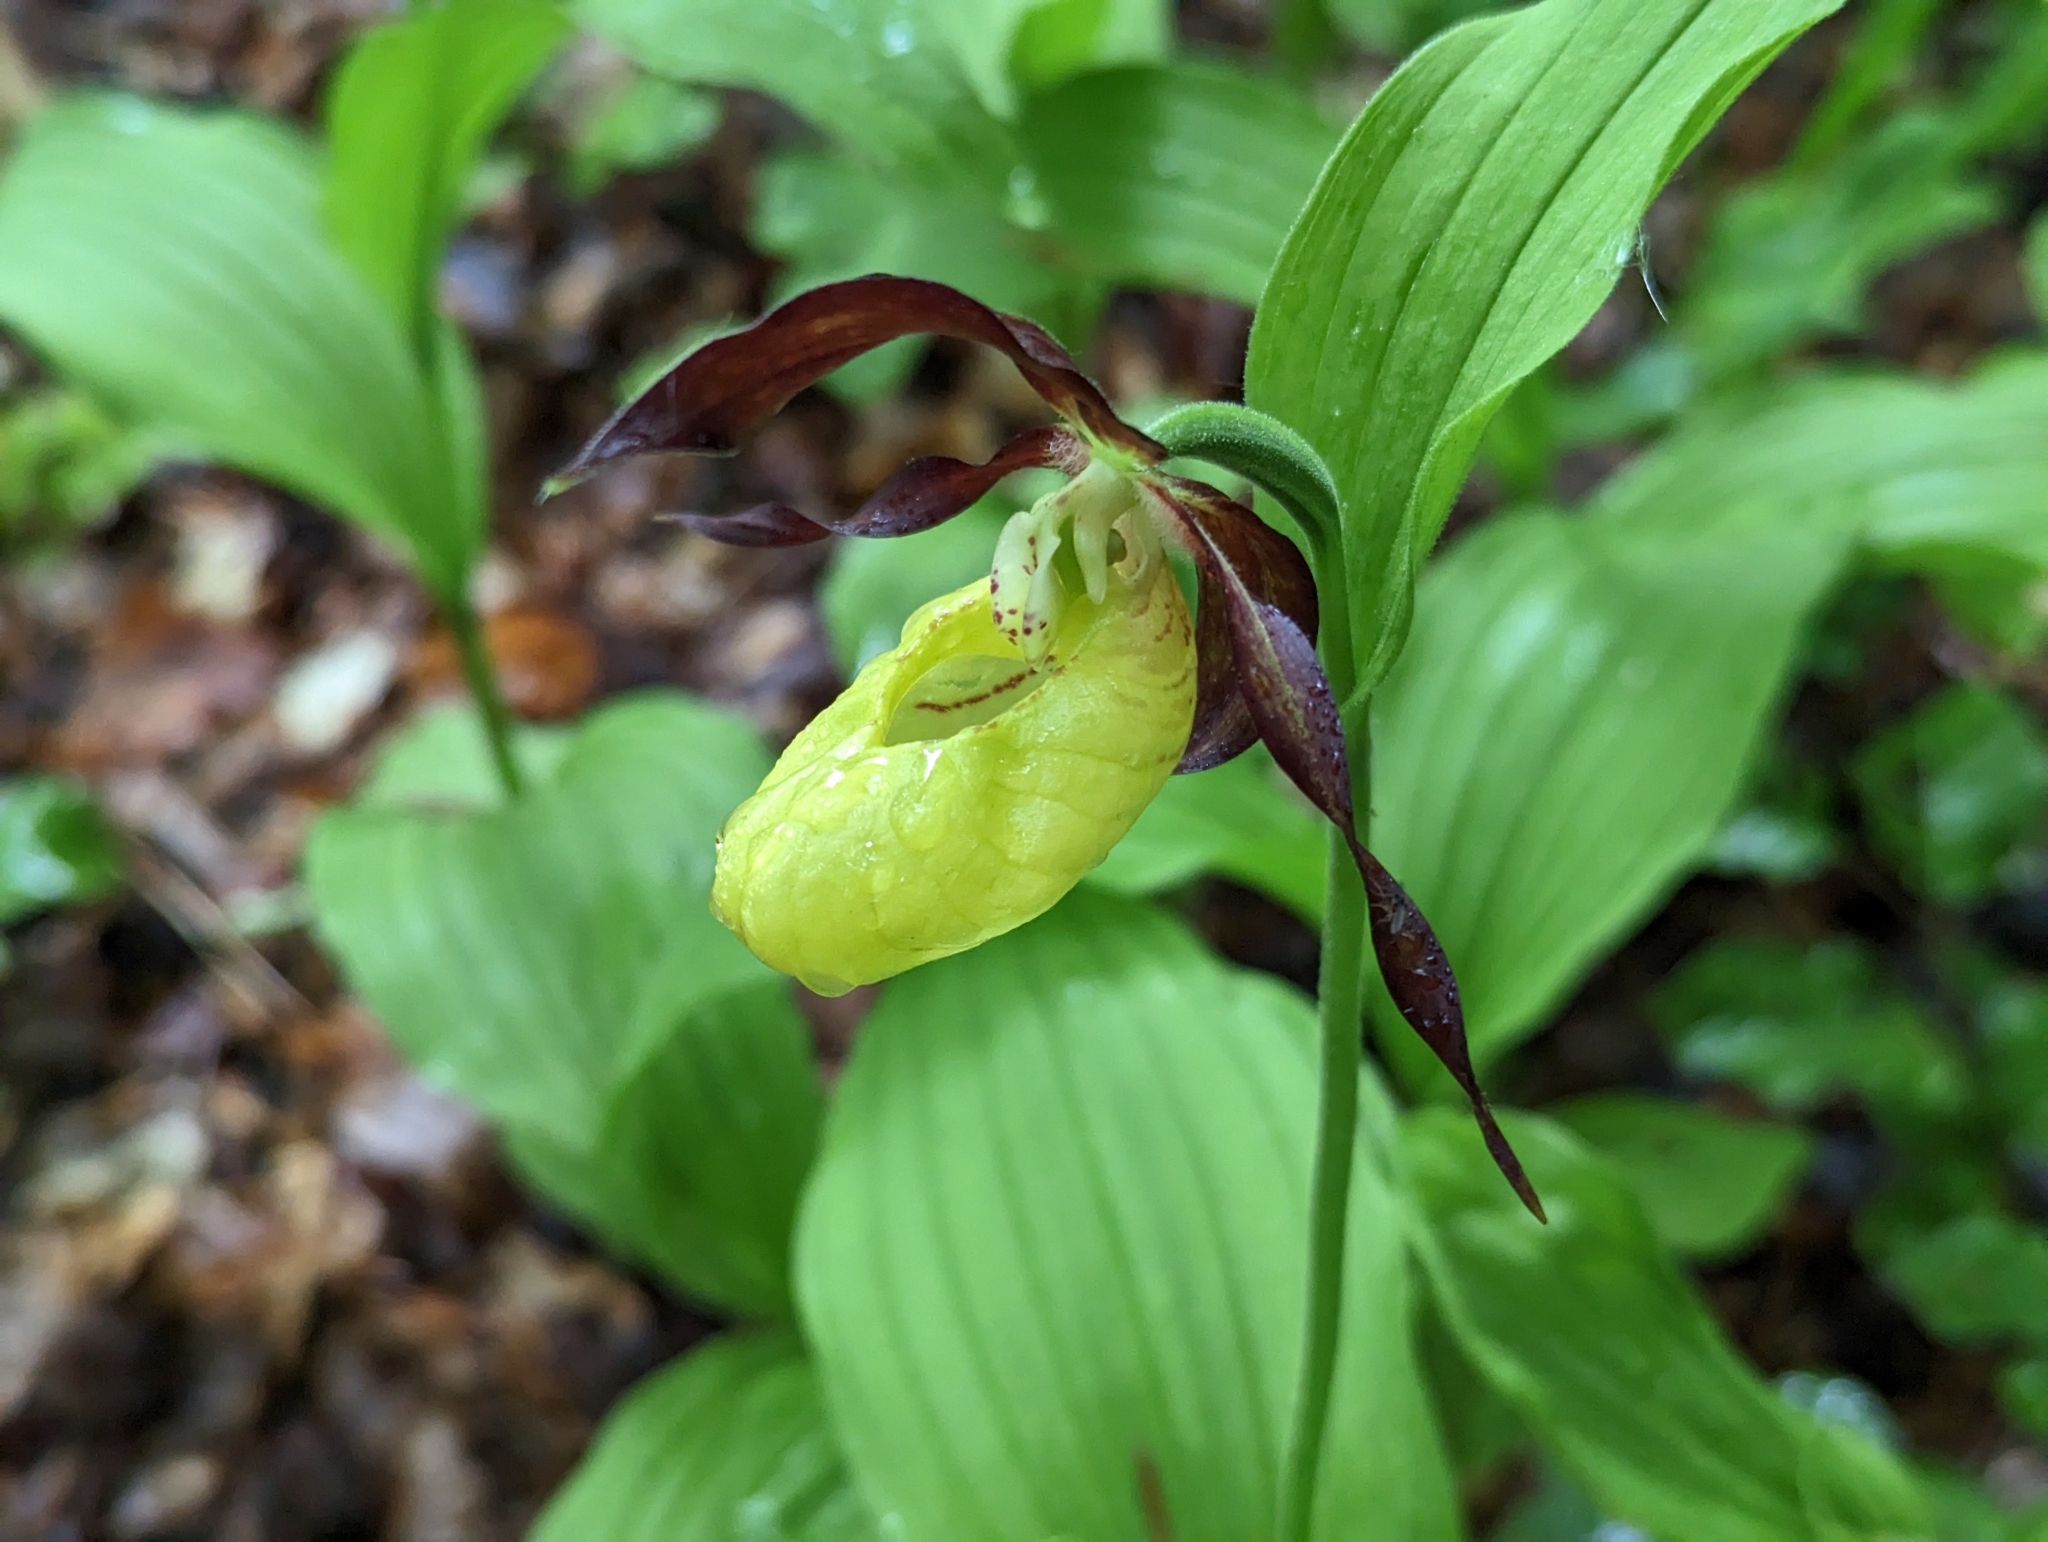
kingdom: Plantae
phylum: Tracheophyta
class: Liliopsida
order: Asparagales
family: Orchidaceae
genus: Cypripedium
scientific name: Cypripedium calceolus
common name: Lady's-slipper
